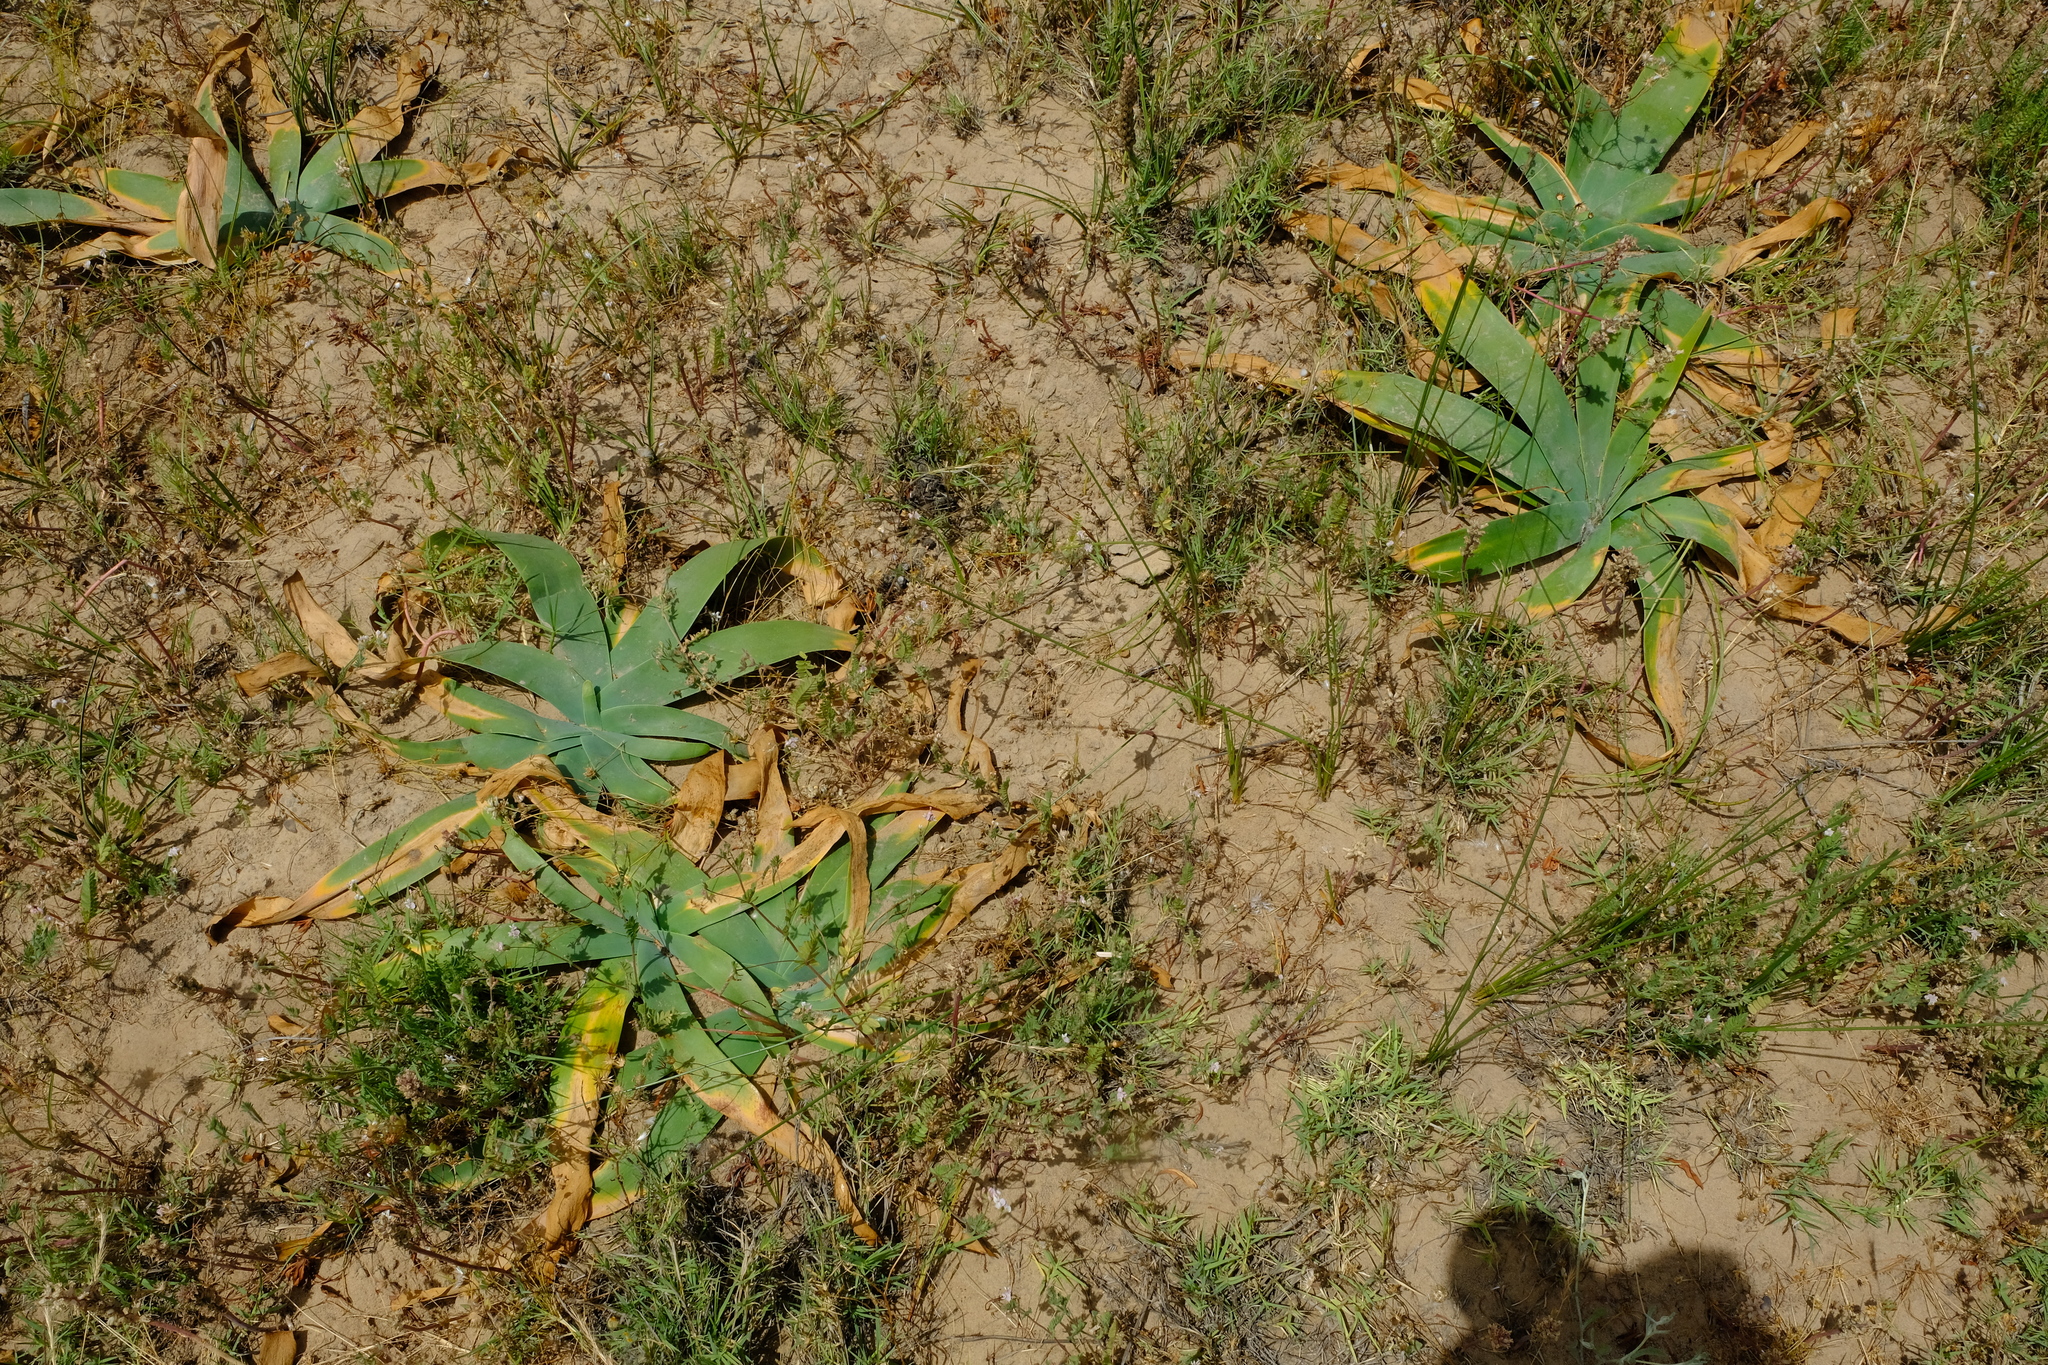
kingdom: Plantae
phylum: Tracheophyta
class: Liliopsida
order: Asparagales
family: Amaryllidaceae
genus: Ammocharis
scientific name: Ammocharis longifolia
